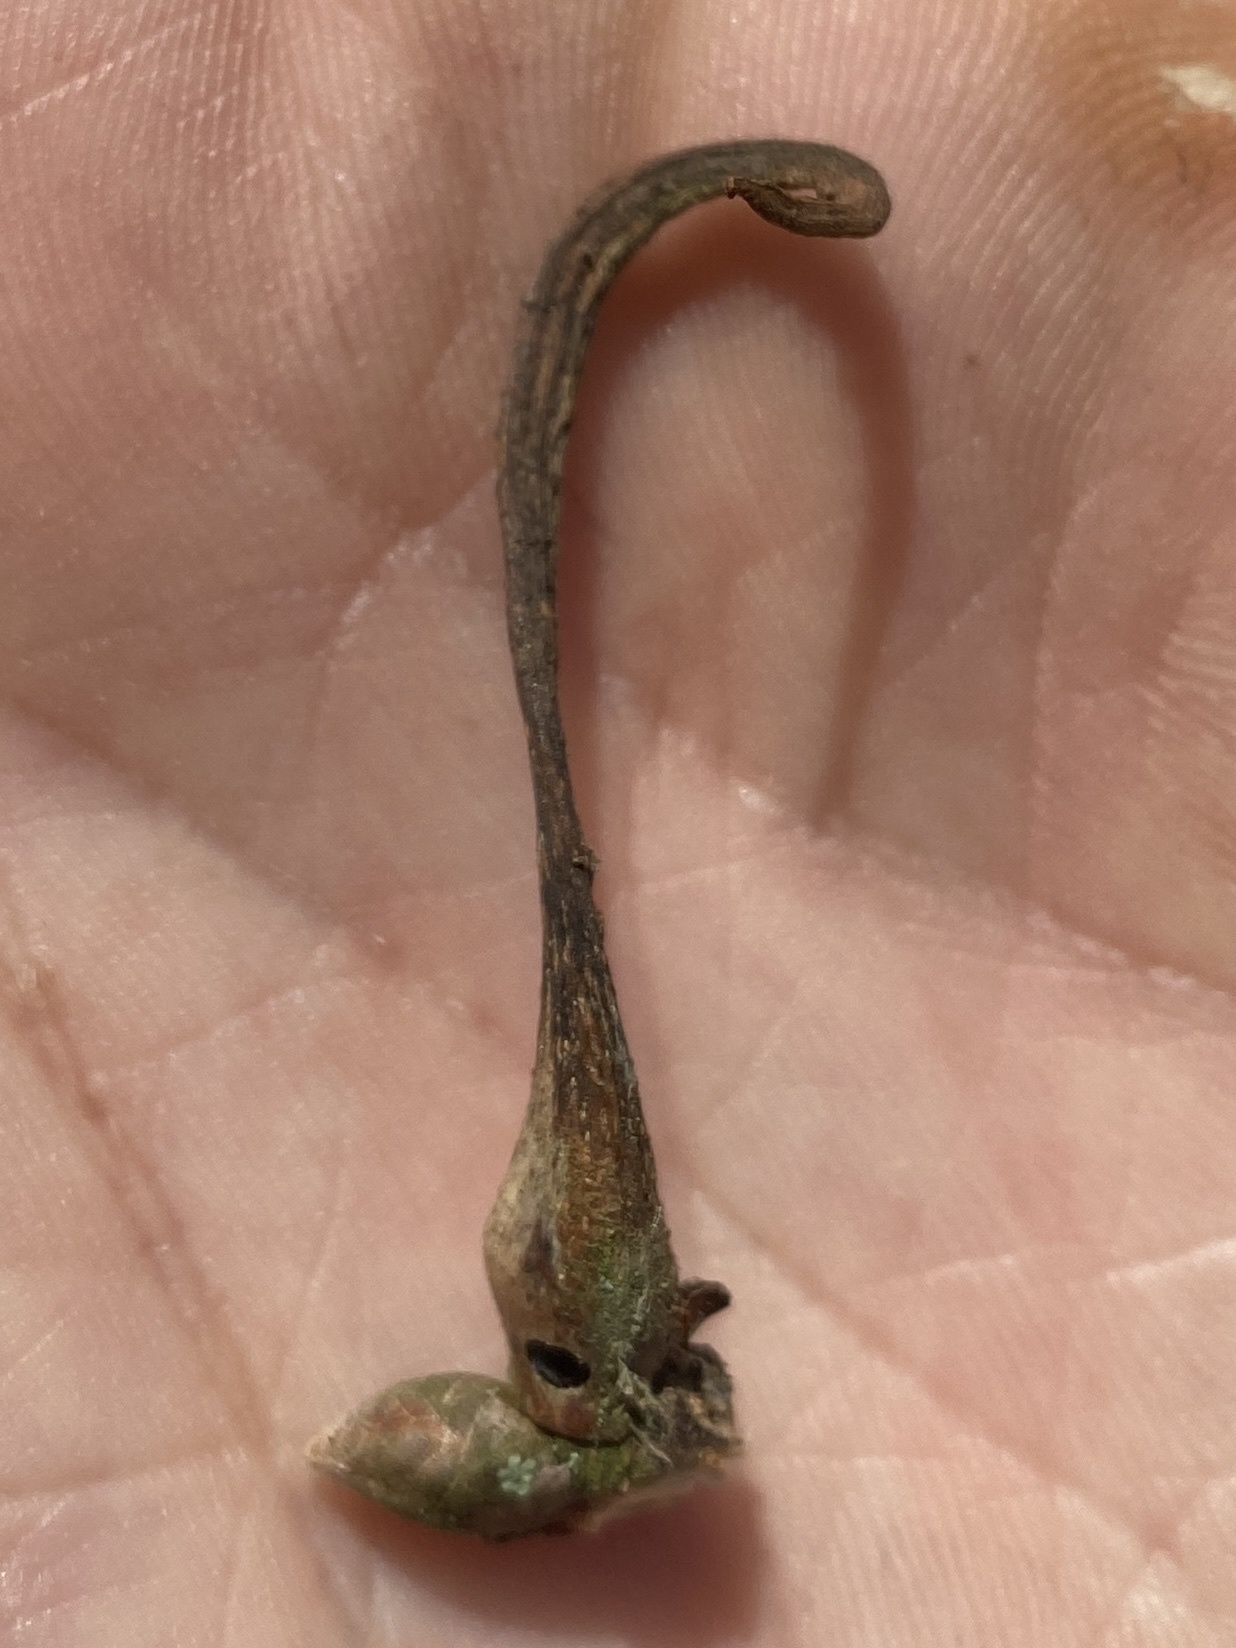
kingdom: Animalia
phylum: Arthropoda
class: Insecta
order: Hymenoptera
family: Cynipidae
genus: Andricus
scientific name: Andricus aries
